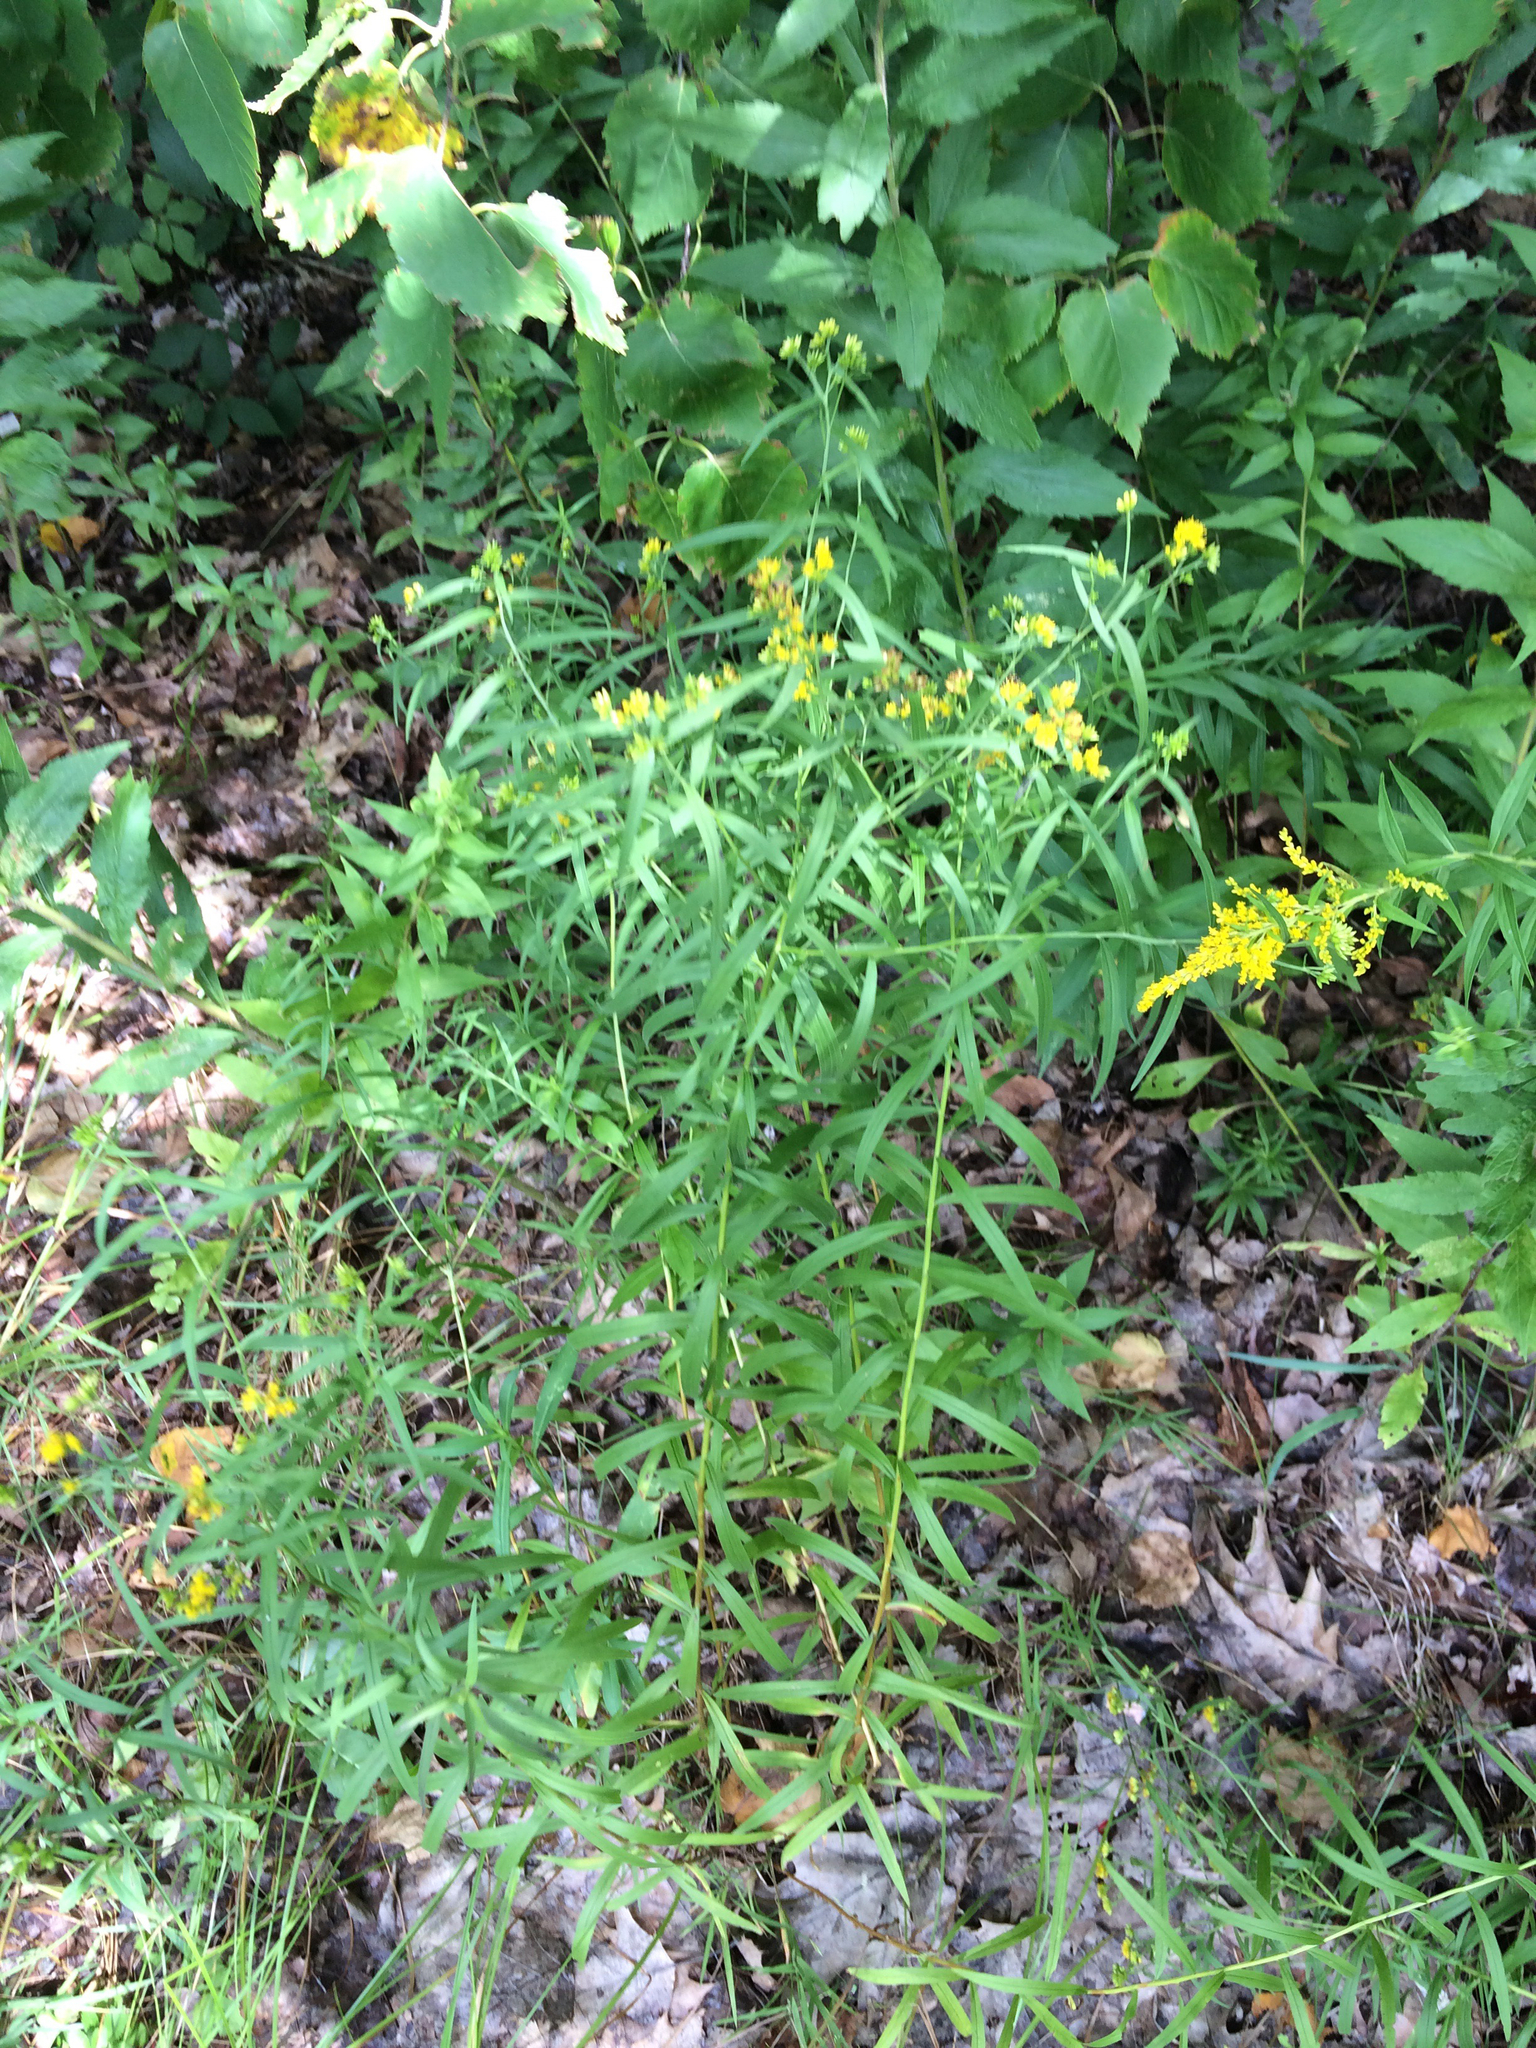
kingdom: Plantae
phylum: Tracheophyta
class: Magnoliopsida
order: Asterales
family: Asteraceae
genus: Euthamia
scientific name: Euthamia graminifolia
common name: Common goldentop
